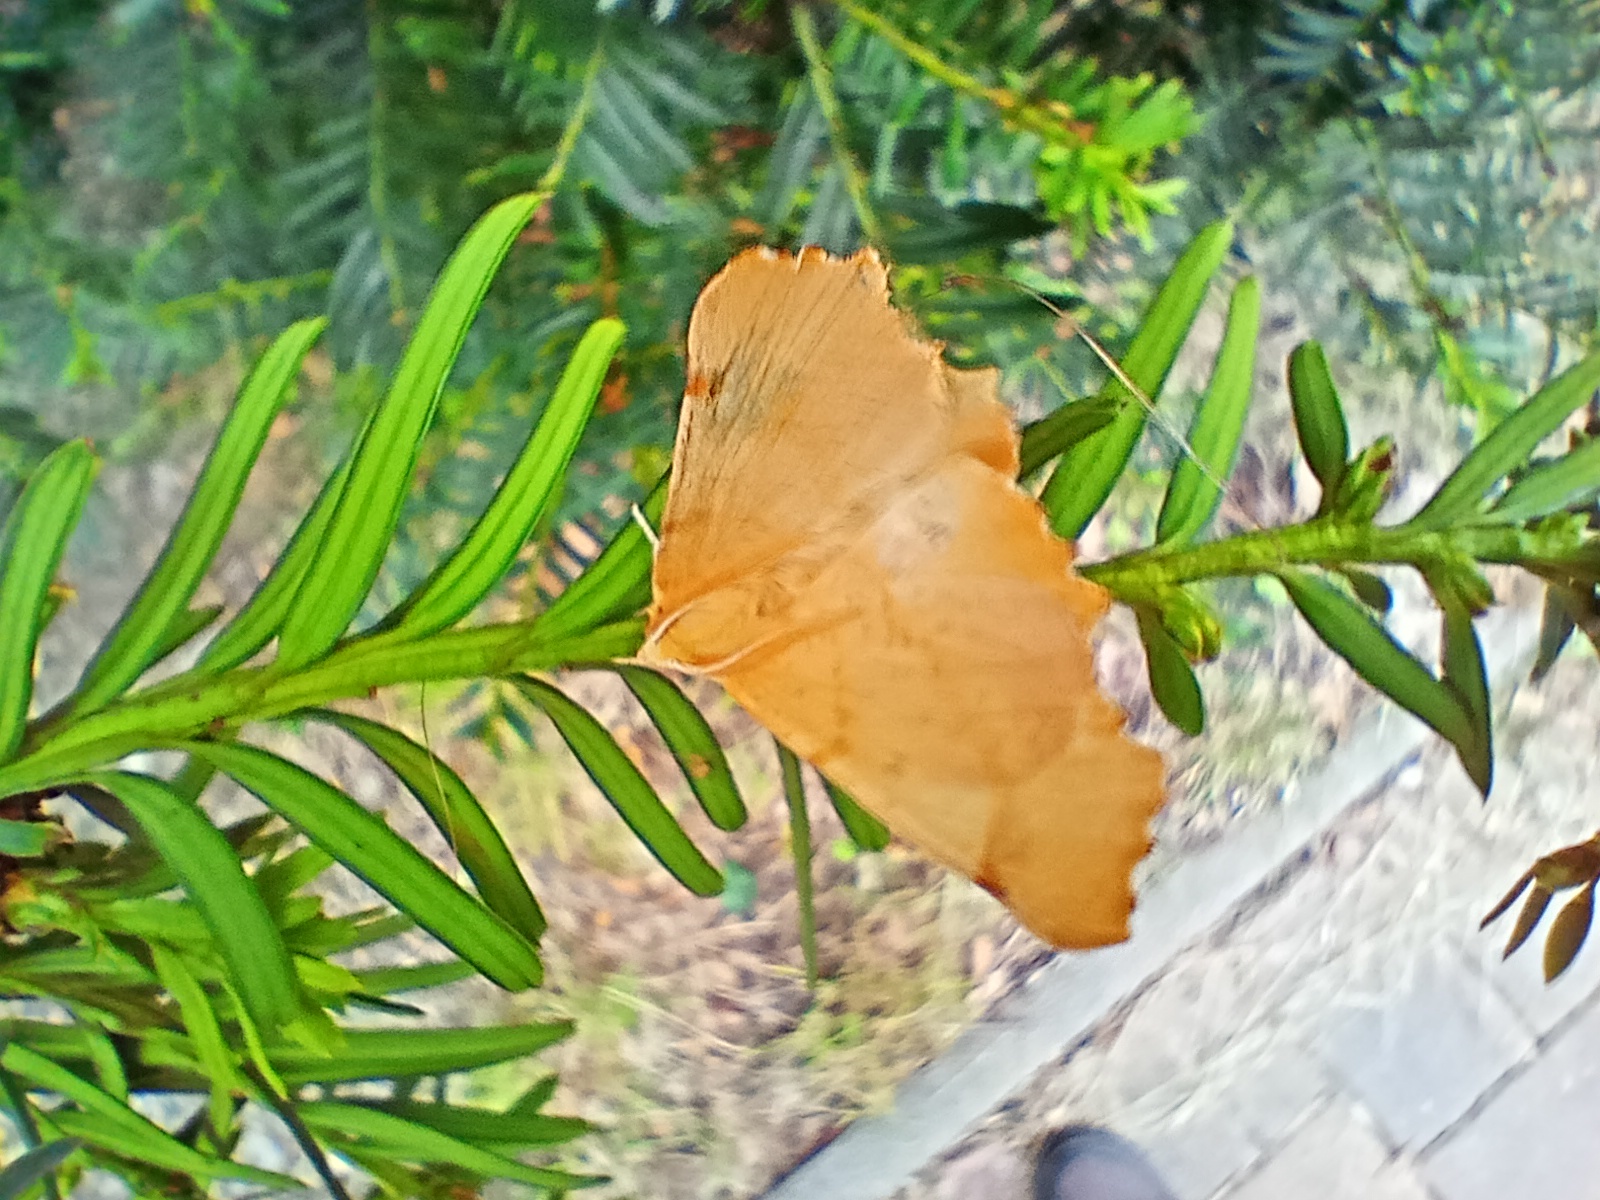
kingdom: Animalia
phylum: Arthropoda
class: Insecta
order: Lepidoptera
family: Geometridae
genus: Ennomos
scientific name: Ennomos autumnaria
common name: Large thorn
